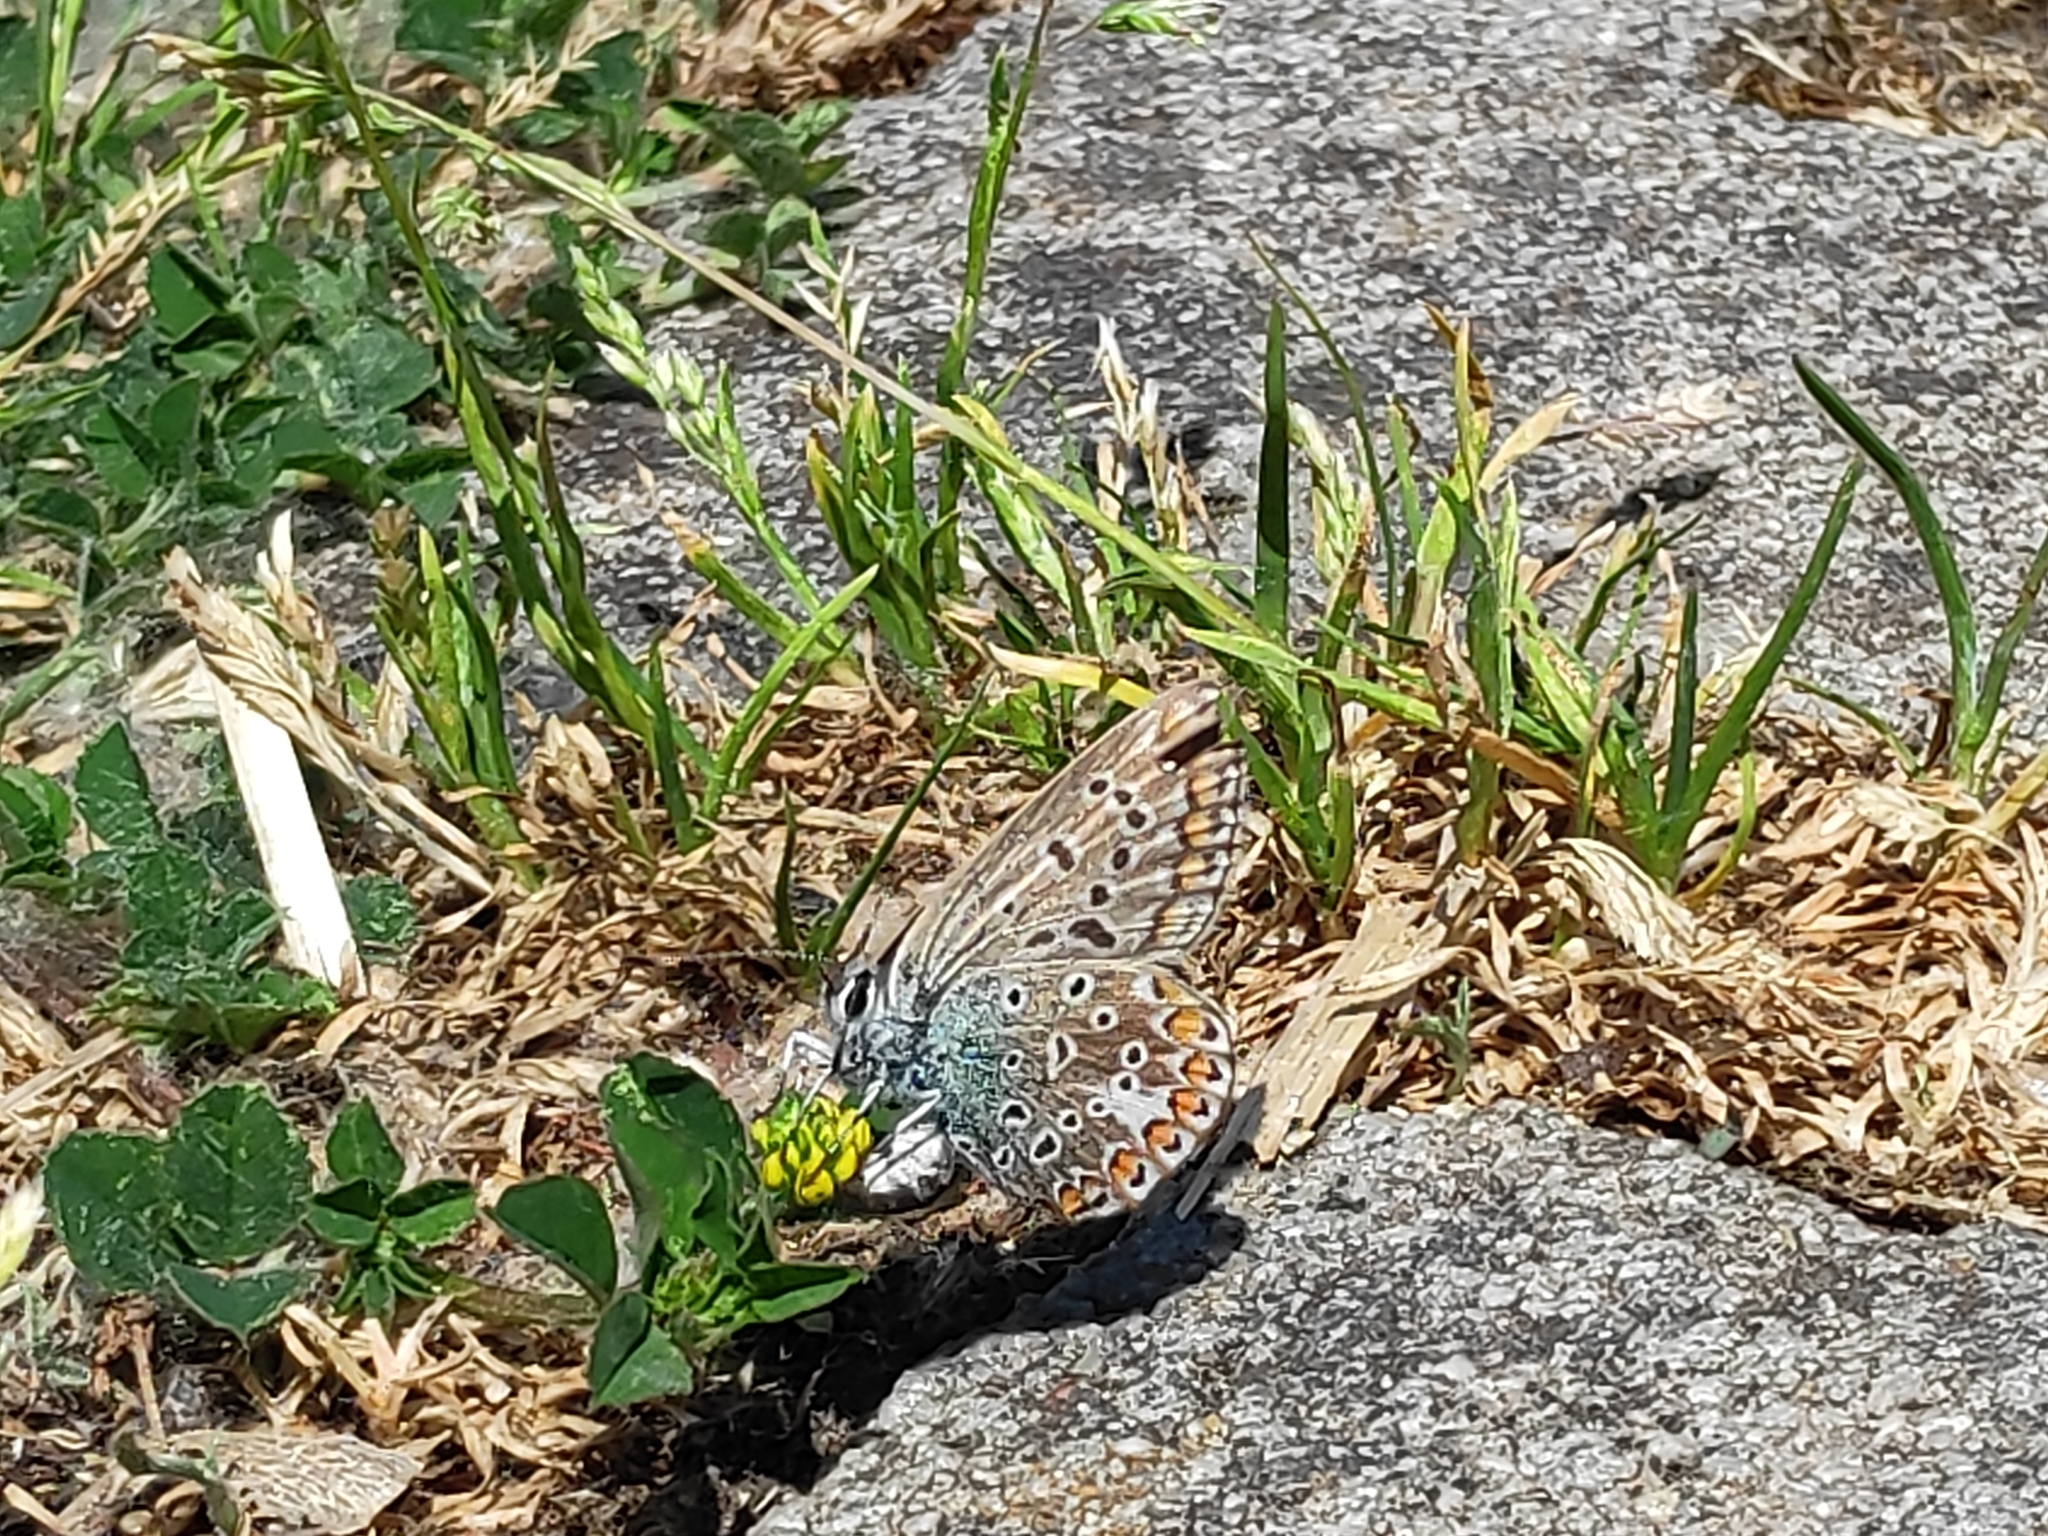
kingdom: Animalia
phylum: Arthropoda
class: Insecta
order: Lepidoptera
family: Lycaenidae
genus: Polyommatus
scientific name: Polyommatus icarus
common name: Common blue
